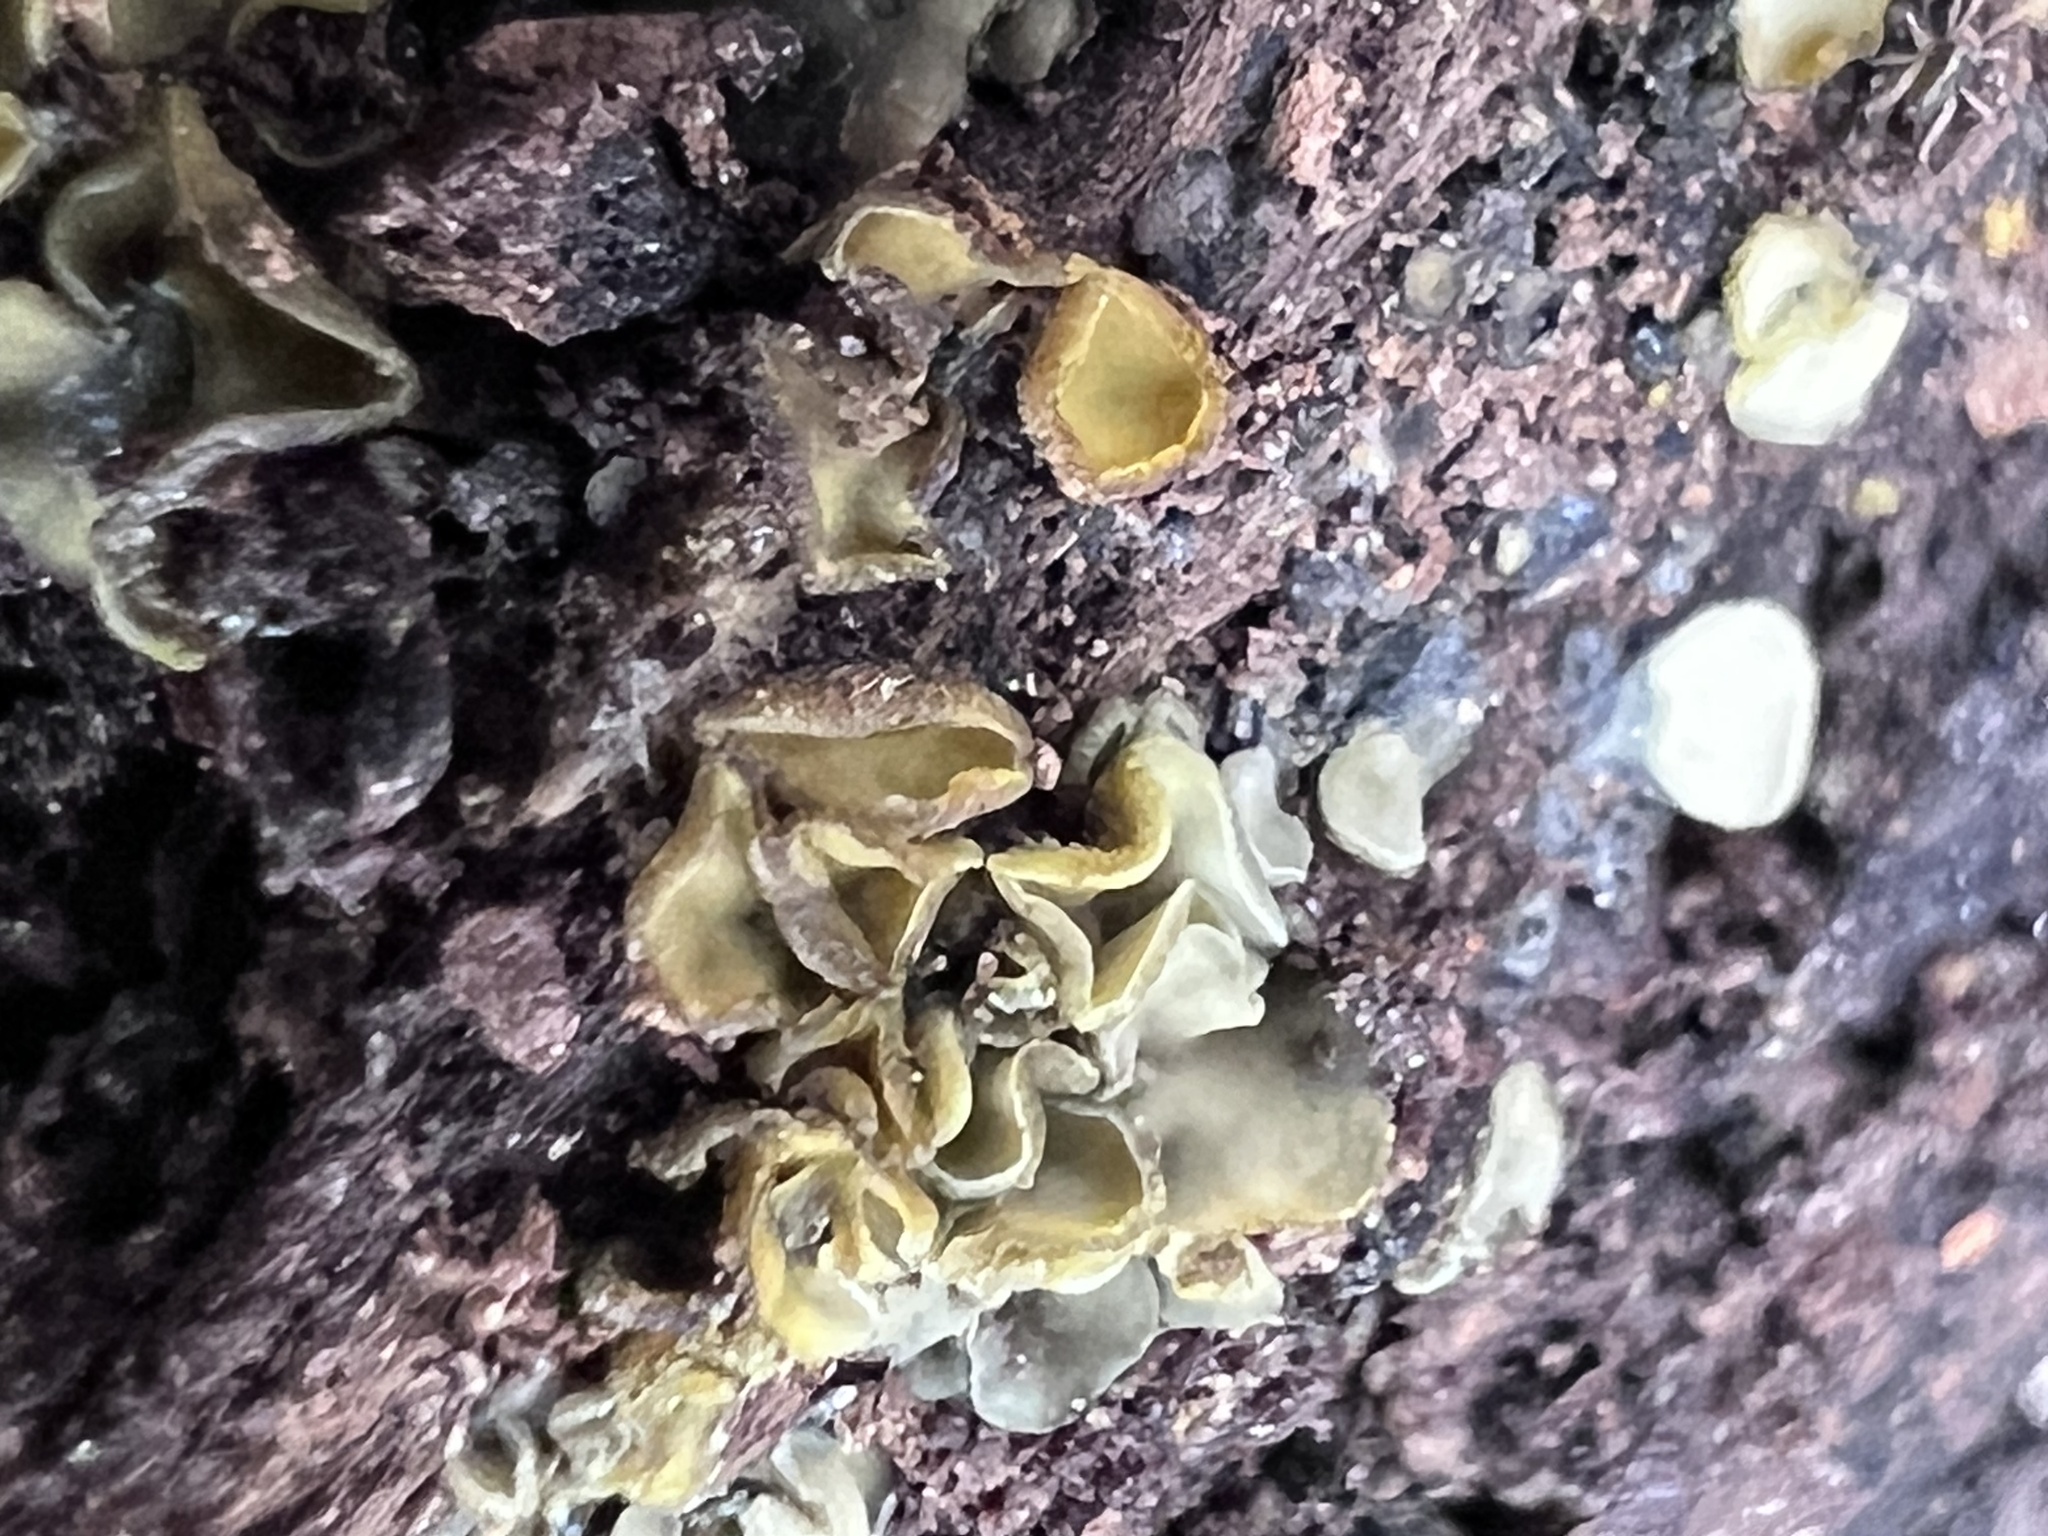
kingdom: Fungi
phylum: Ascomycota
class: Leotiomycetes
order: Helotiales
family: Chlorospleniaceae
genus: Chlorosplenium
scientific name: Chlorosplenium chlora
